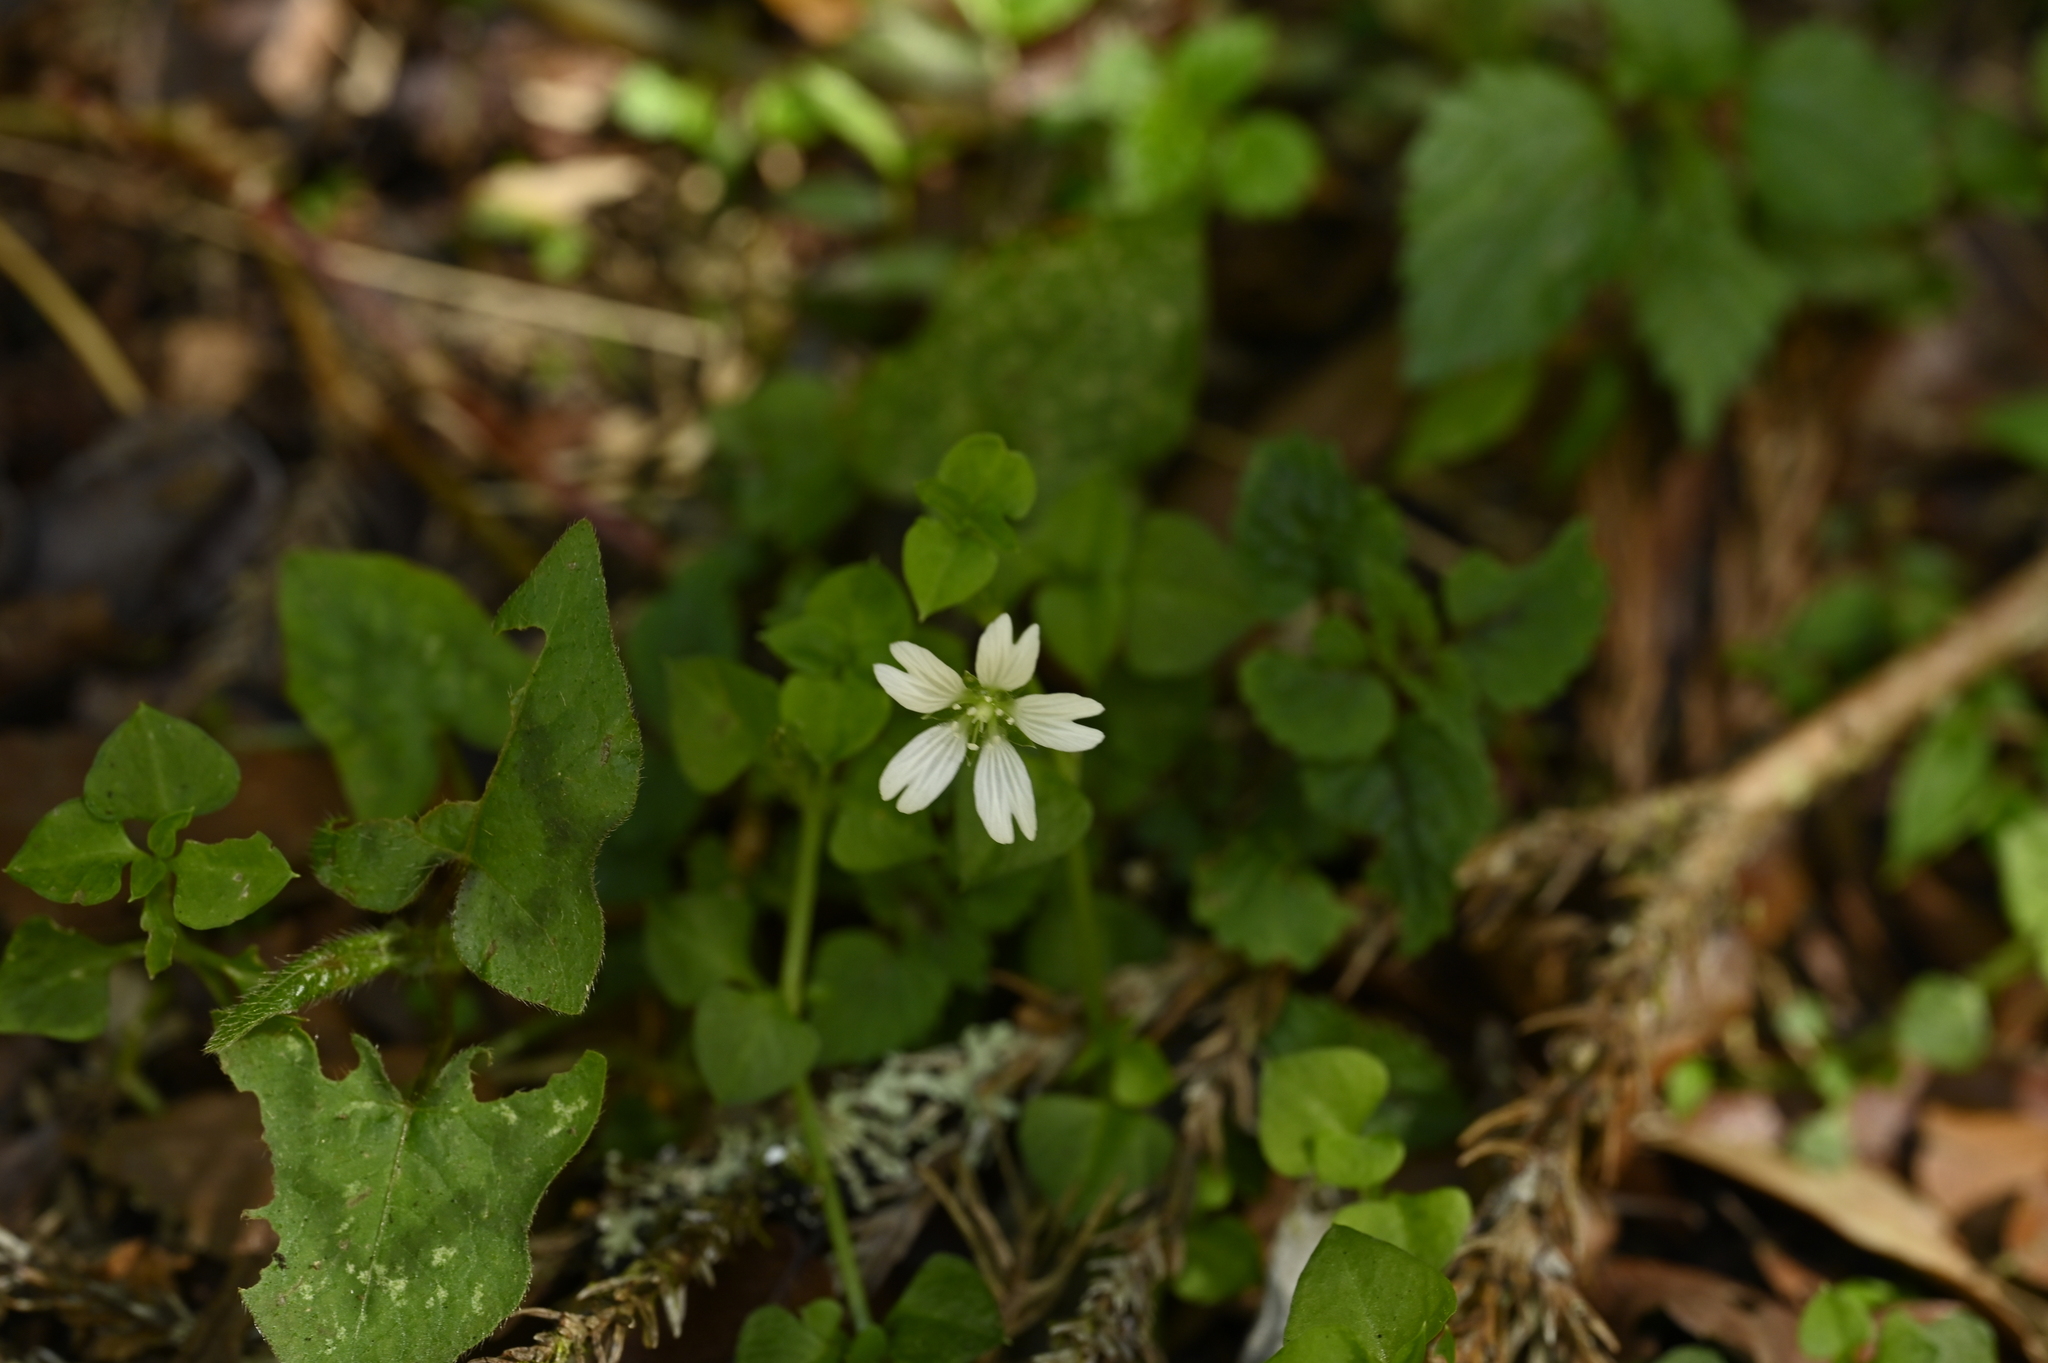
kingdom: Plantae
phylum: Tracheophyta
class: Magnoliopsida
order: Caryophyllales
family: Caryophyllaceae
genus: Nubelaria
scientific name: Nubelaria arisanensis
